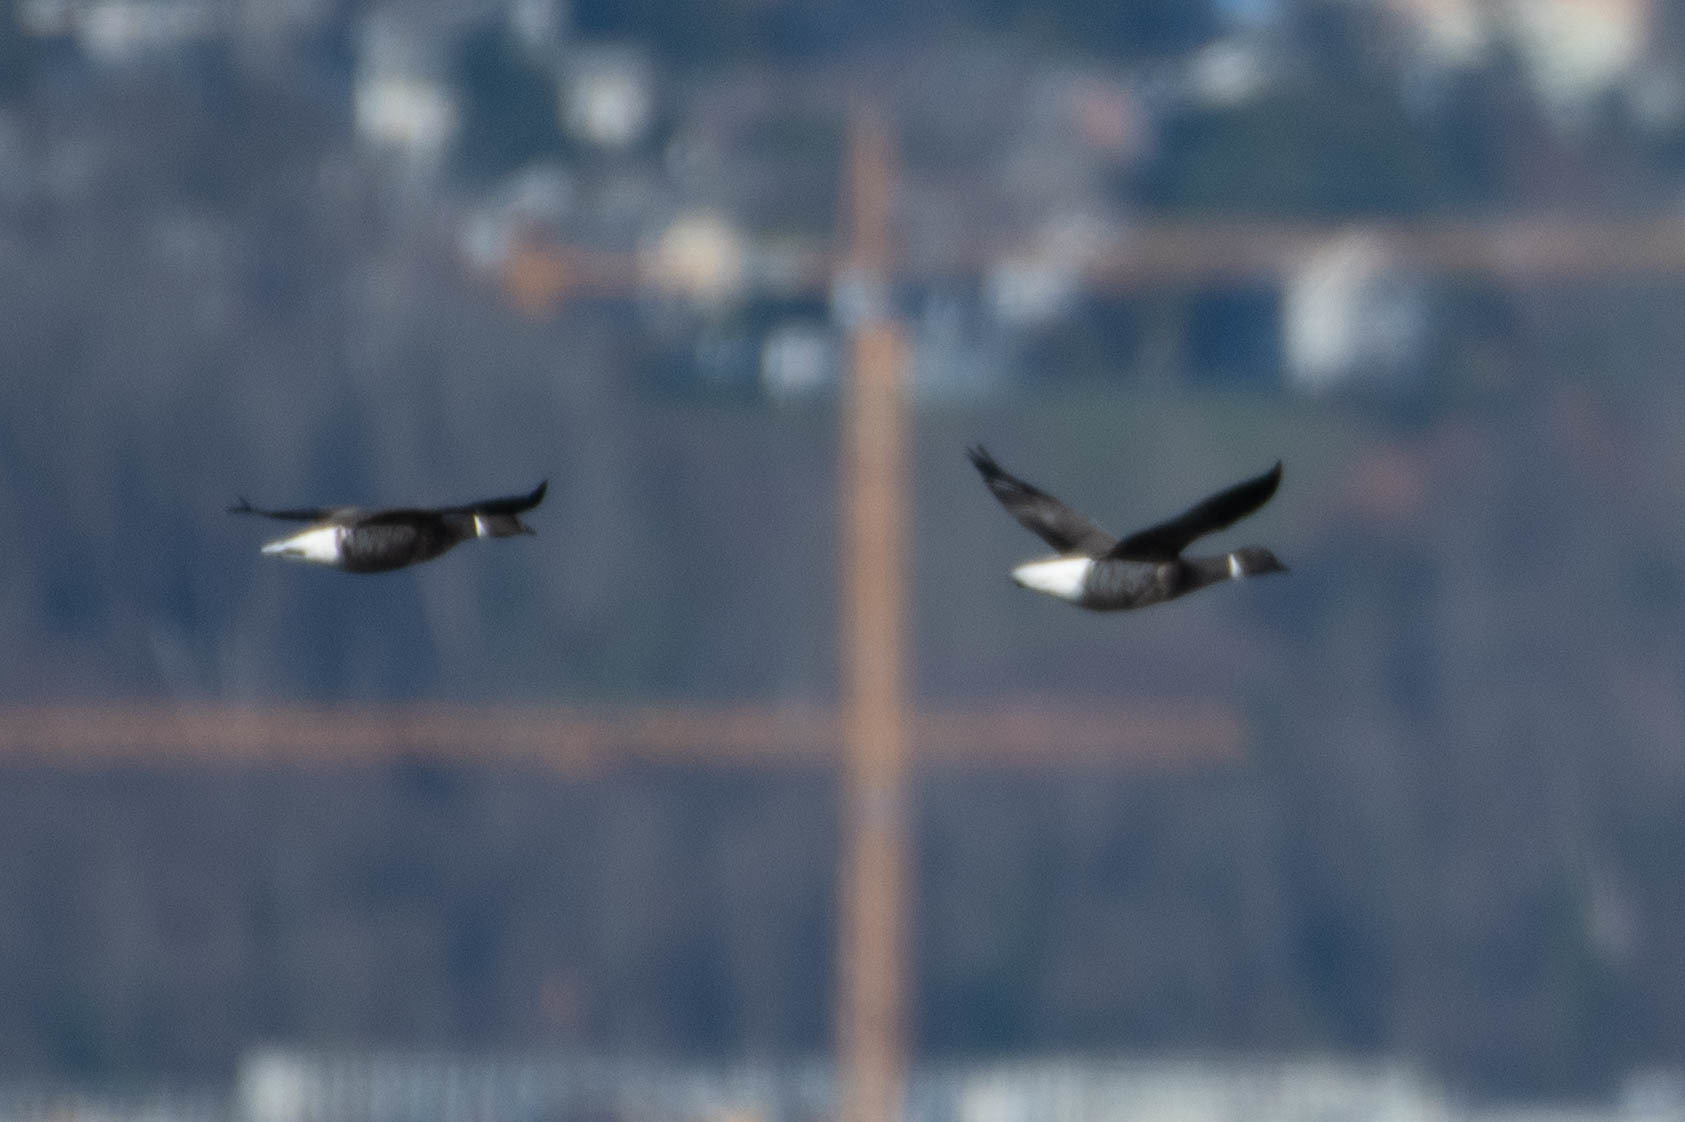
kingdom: Animalia
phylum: Chordata
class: Aves
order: Anseriformes
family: Anatidae
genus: Branta
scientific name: Branta bernicla
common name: Brant goose
